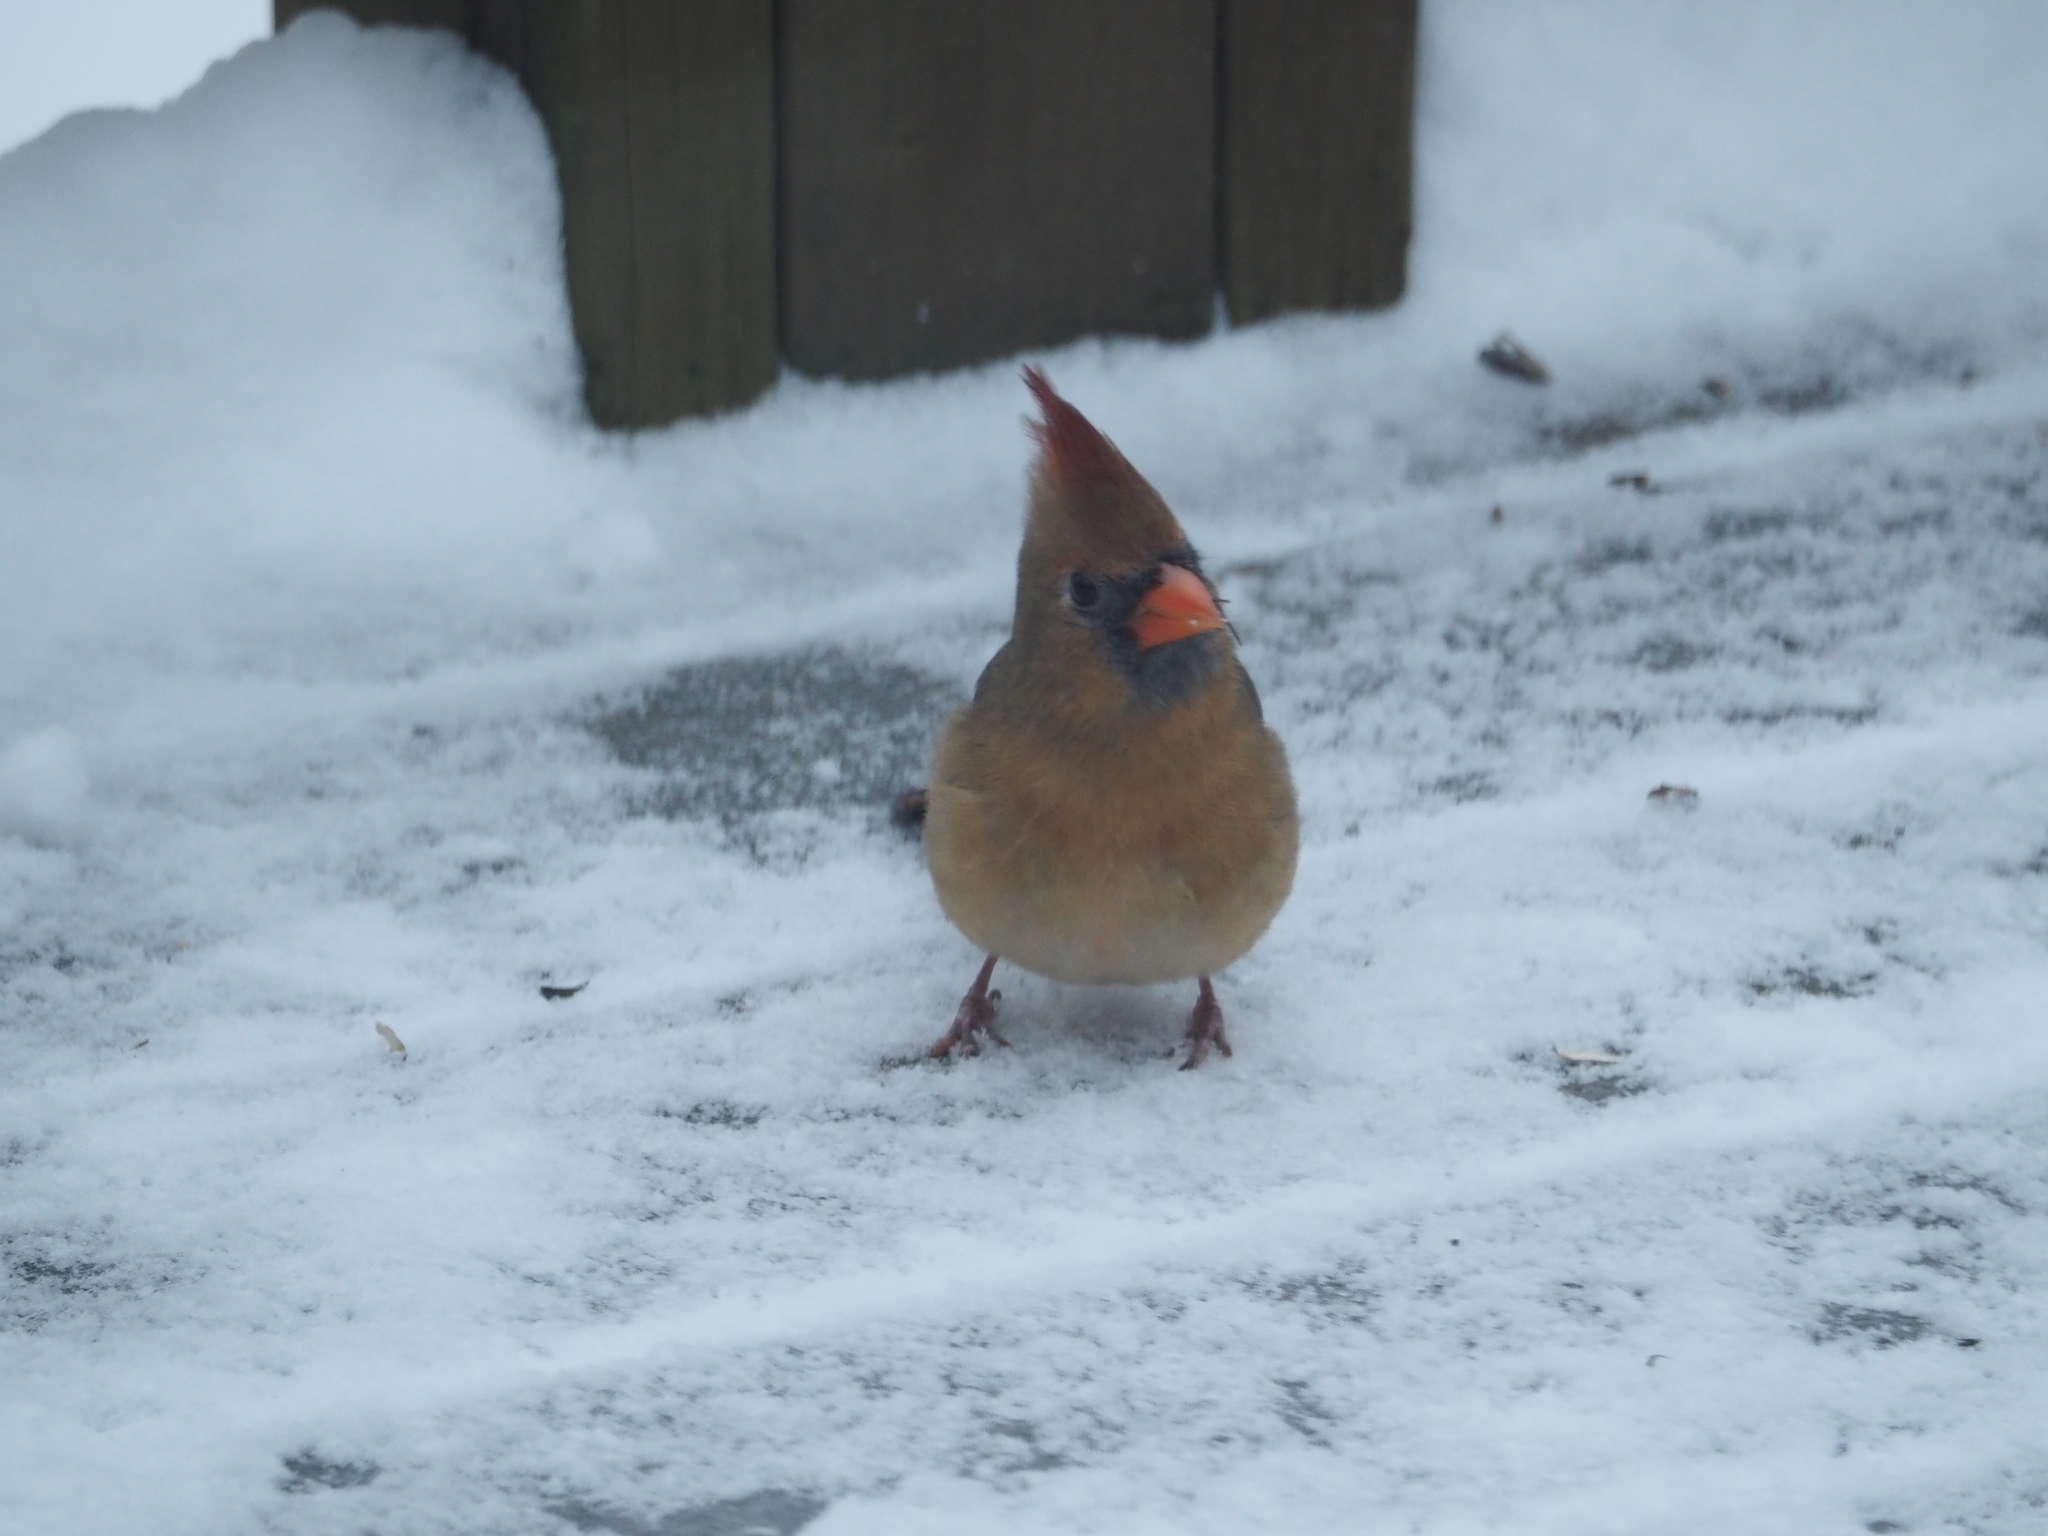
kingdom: Animalia
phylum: Chordata
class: Aves
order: Passeriformes
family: Cardinalidae
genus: Cardinalis
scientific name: Cardinalis cardinalis
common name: Northern cardinal
